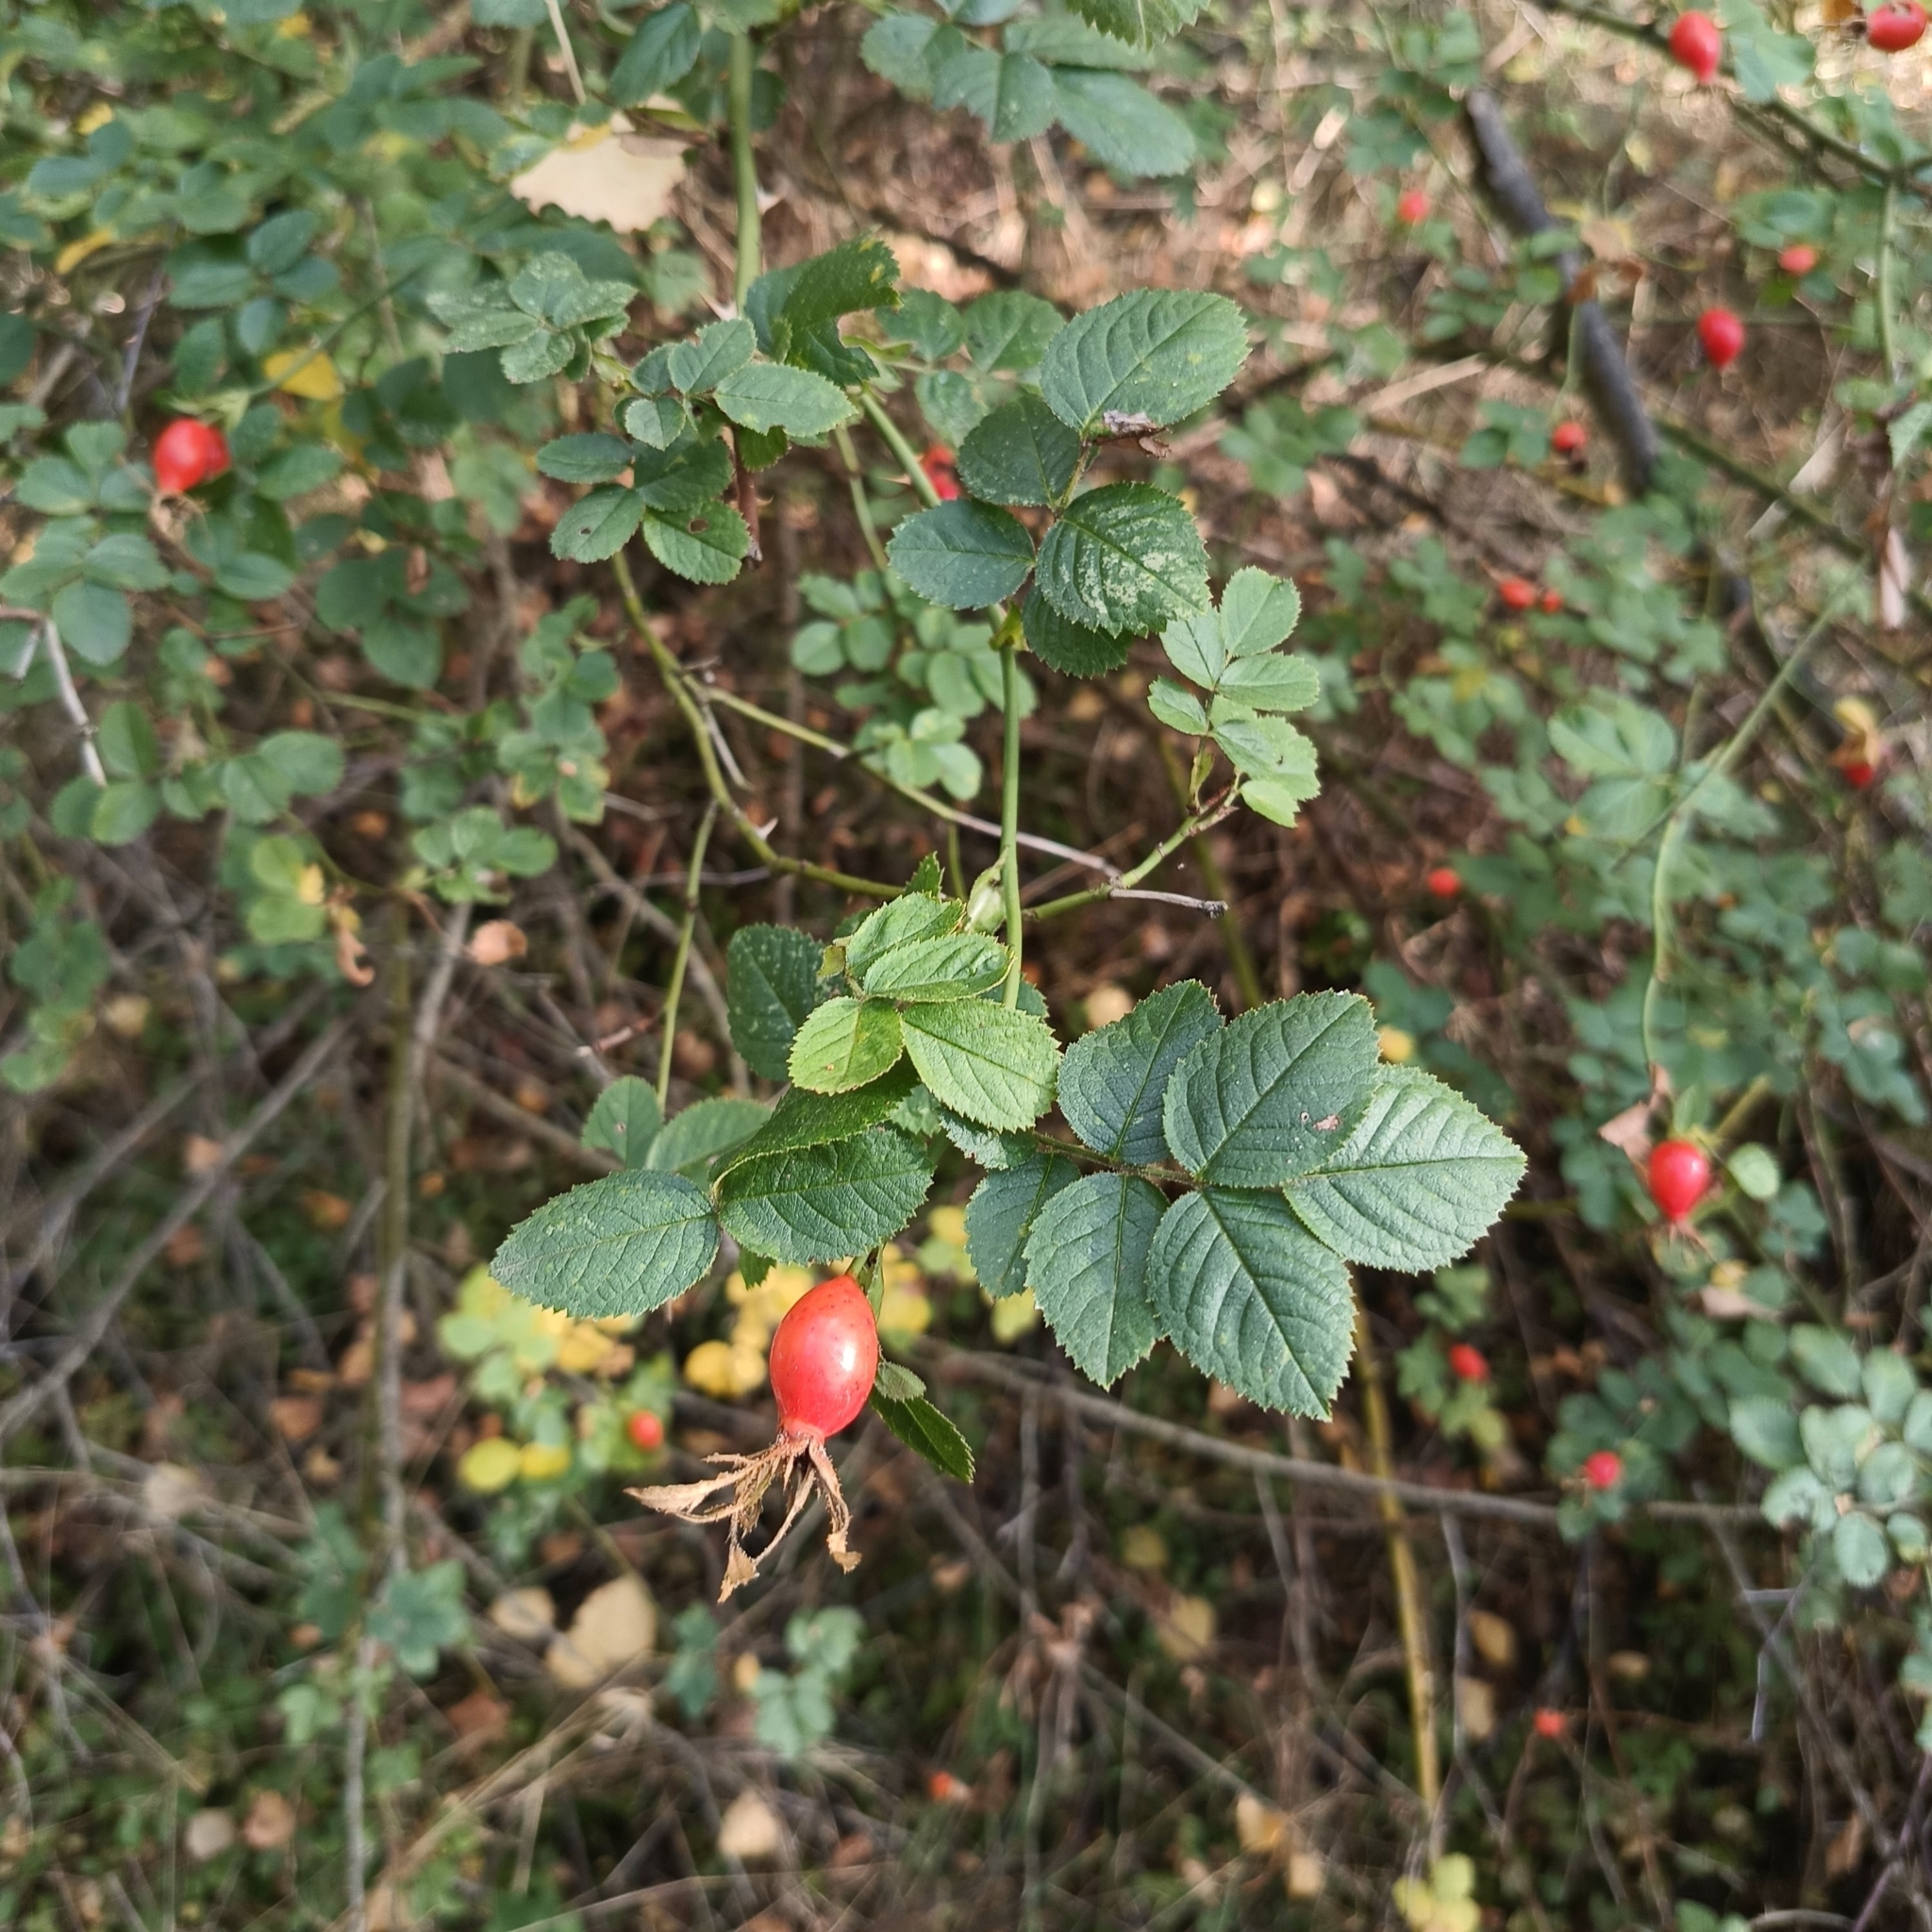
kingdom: Plantae
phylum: Tracheophyta
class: Magnoliopsida
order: Rosales
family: Rosaceae
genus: Rosa
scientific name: Rosa rubiginosa
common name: Sweet-briar
